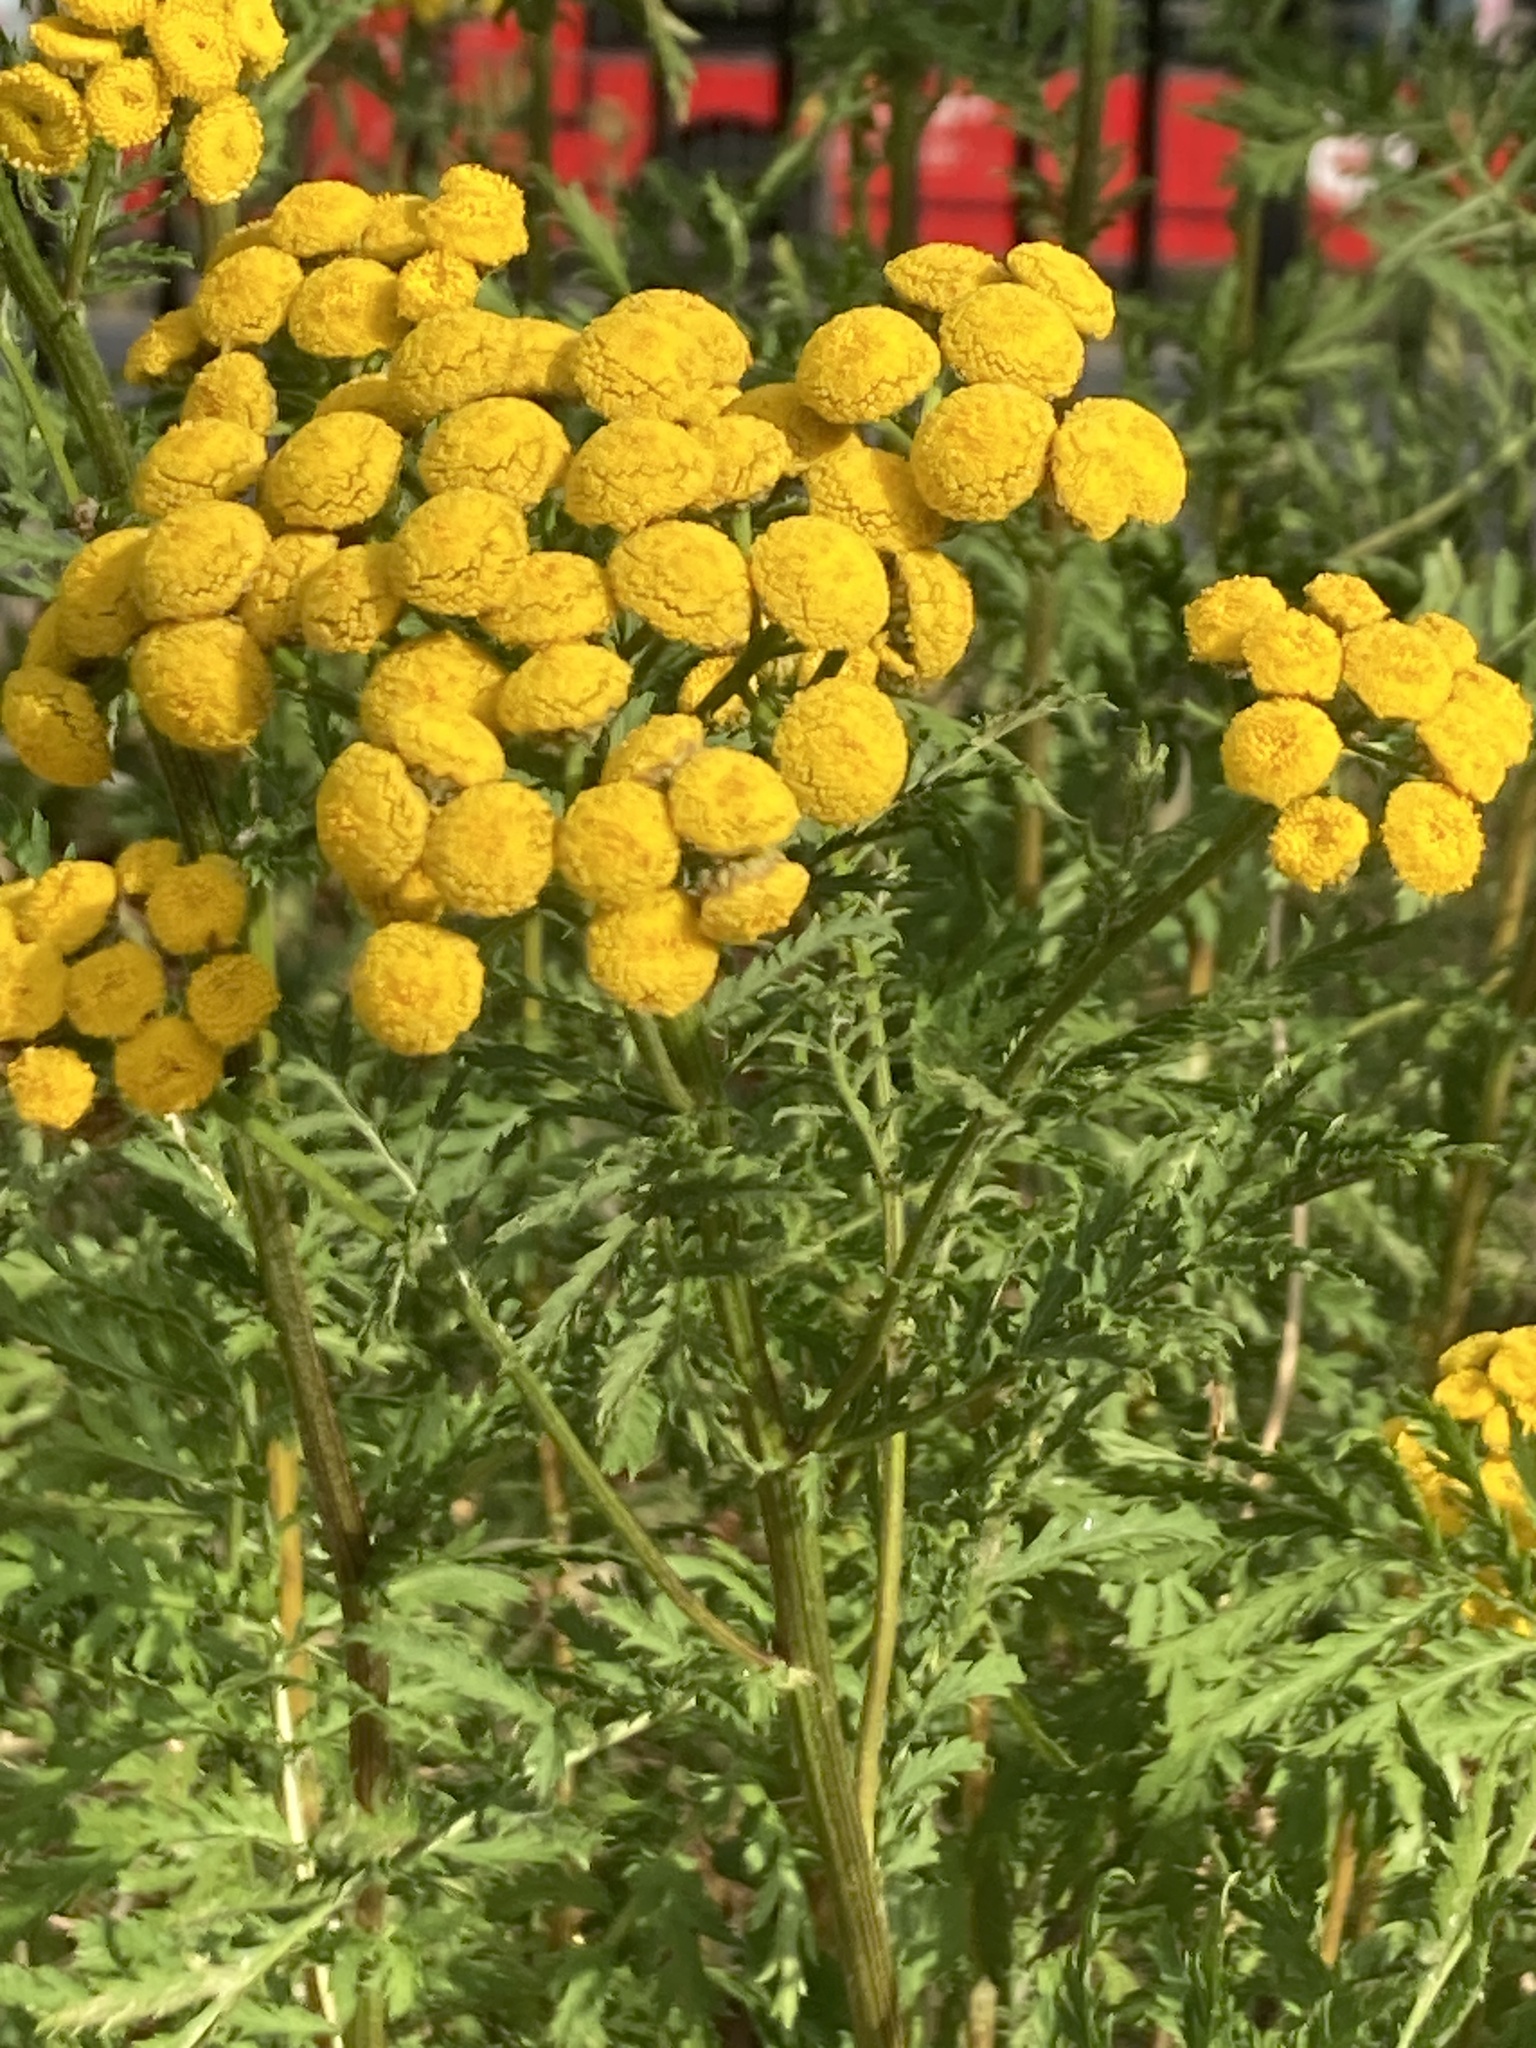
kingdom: Plantae
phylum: Tracheophyta
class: Magnoliopsida
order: Asterales
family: Asteraceae
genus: Tanacetum
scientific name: Tanacetum vulgare
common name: Common tansy
